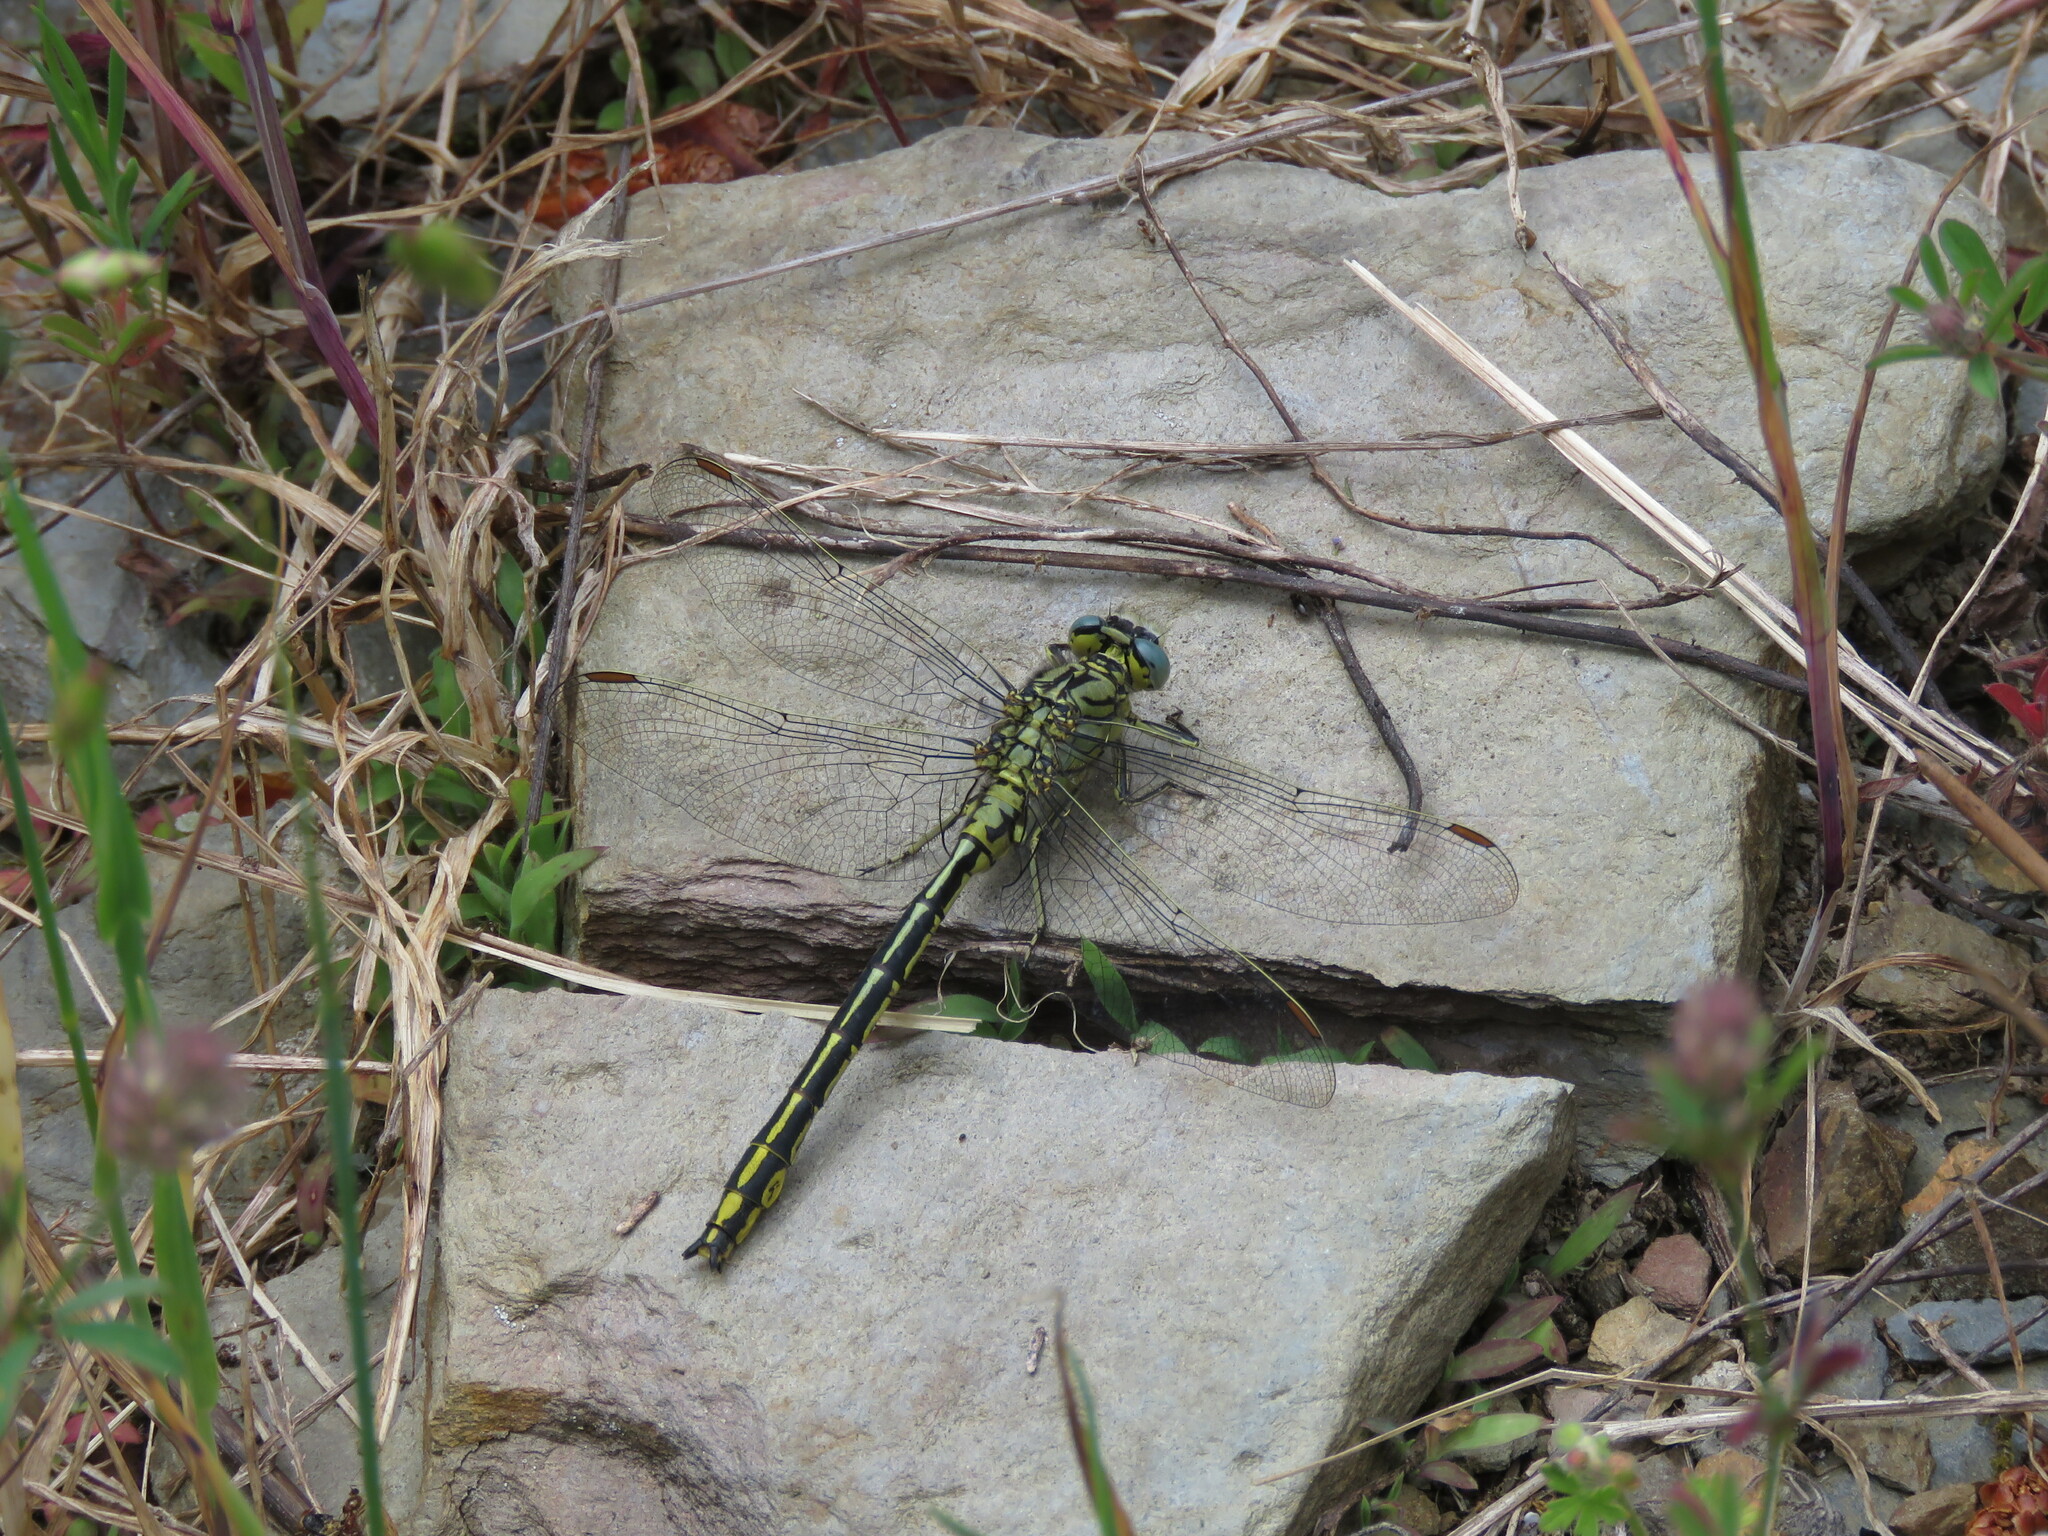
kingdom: Animalia
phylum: Arthropoda
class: Insecta
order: Odonata
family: Gomphidae
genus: Gomphus
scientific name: Gomphus pulchellus
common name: Western clubtail
